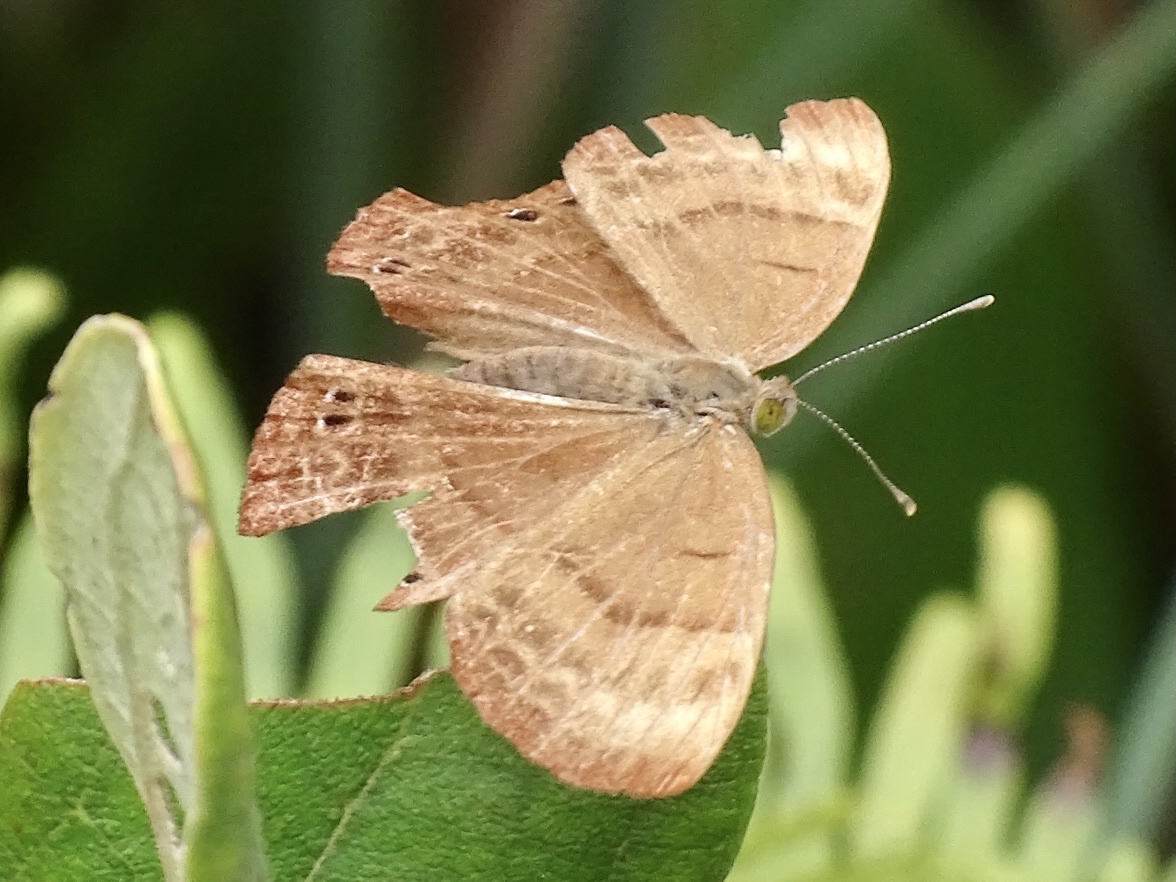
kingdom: Animalia
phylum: Arthropoda
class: Insecta
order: Lepidoptera
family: Lycaenidae
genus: Abisara
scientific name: Abisara echeria
